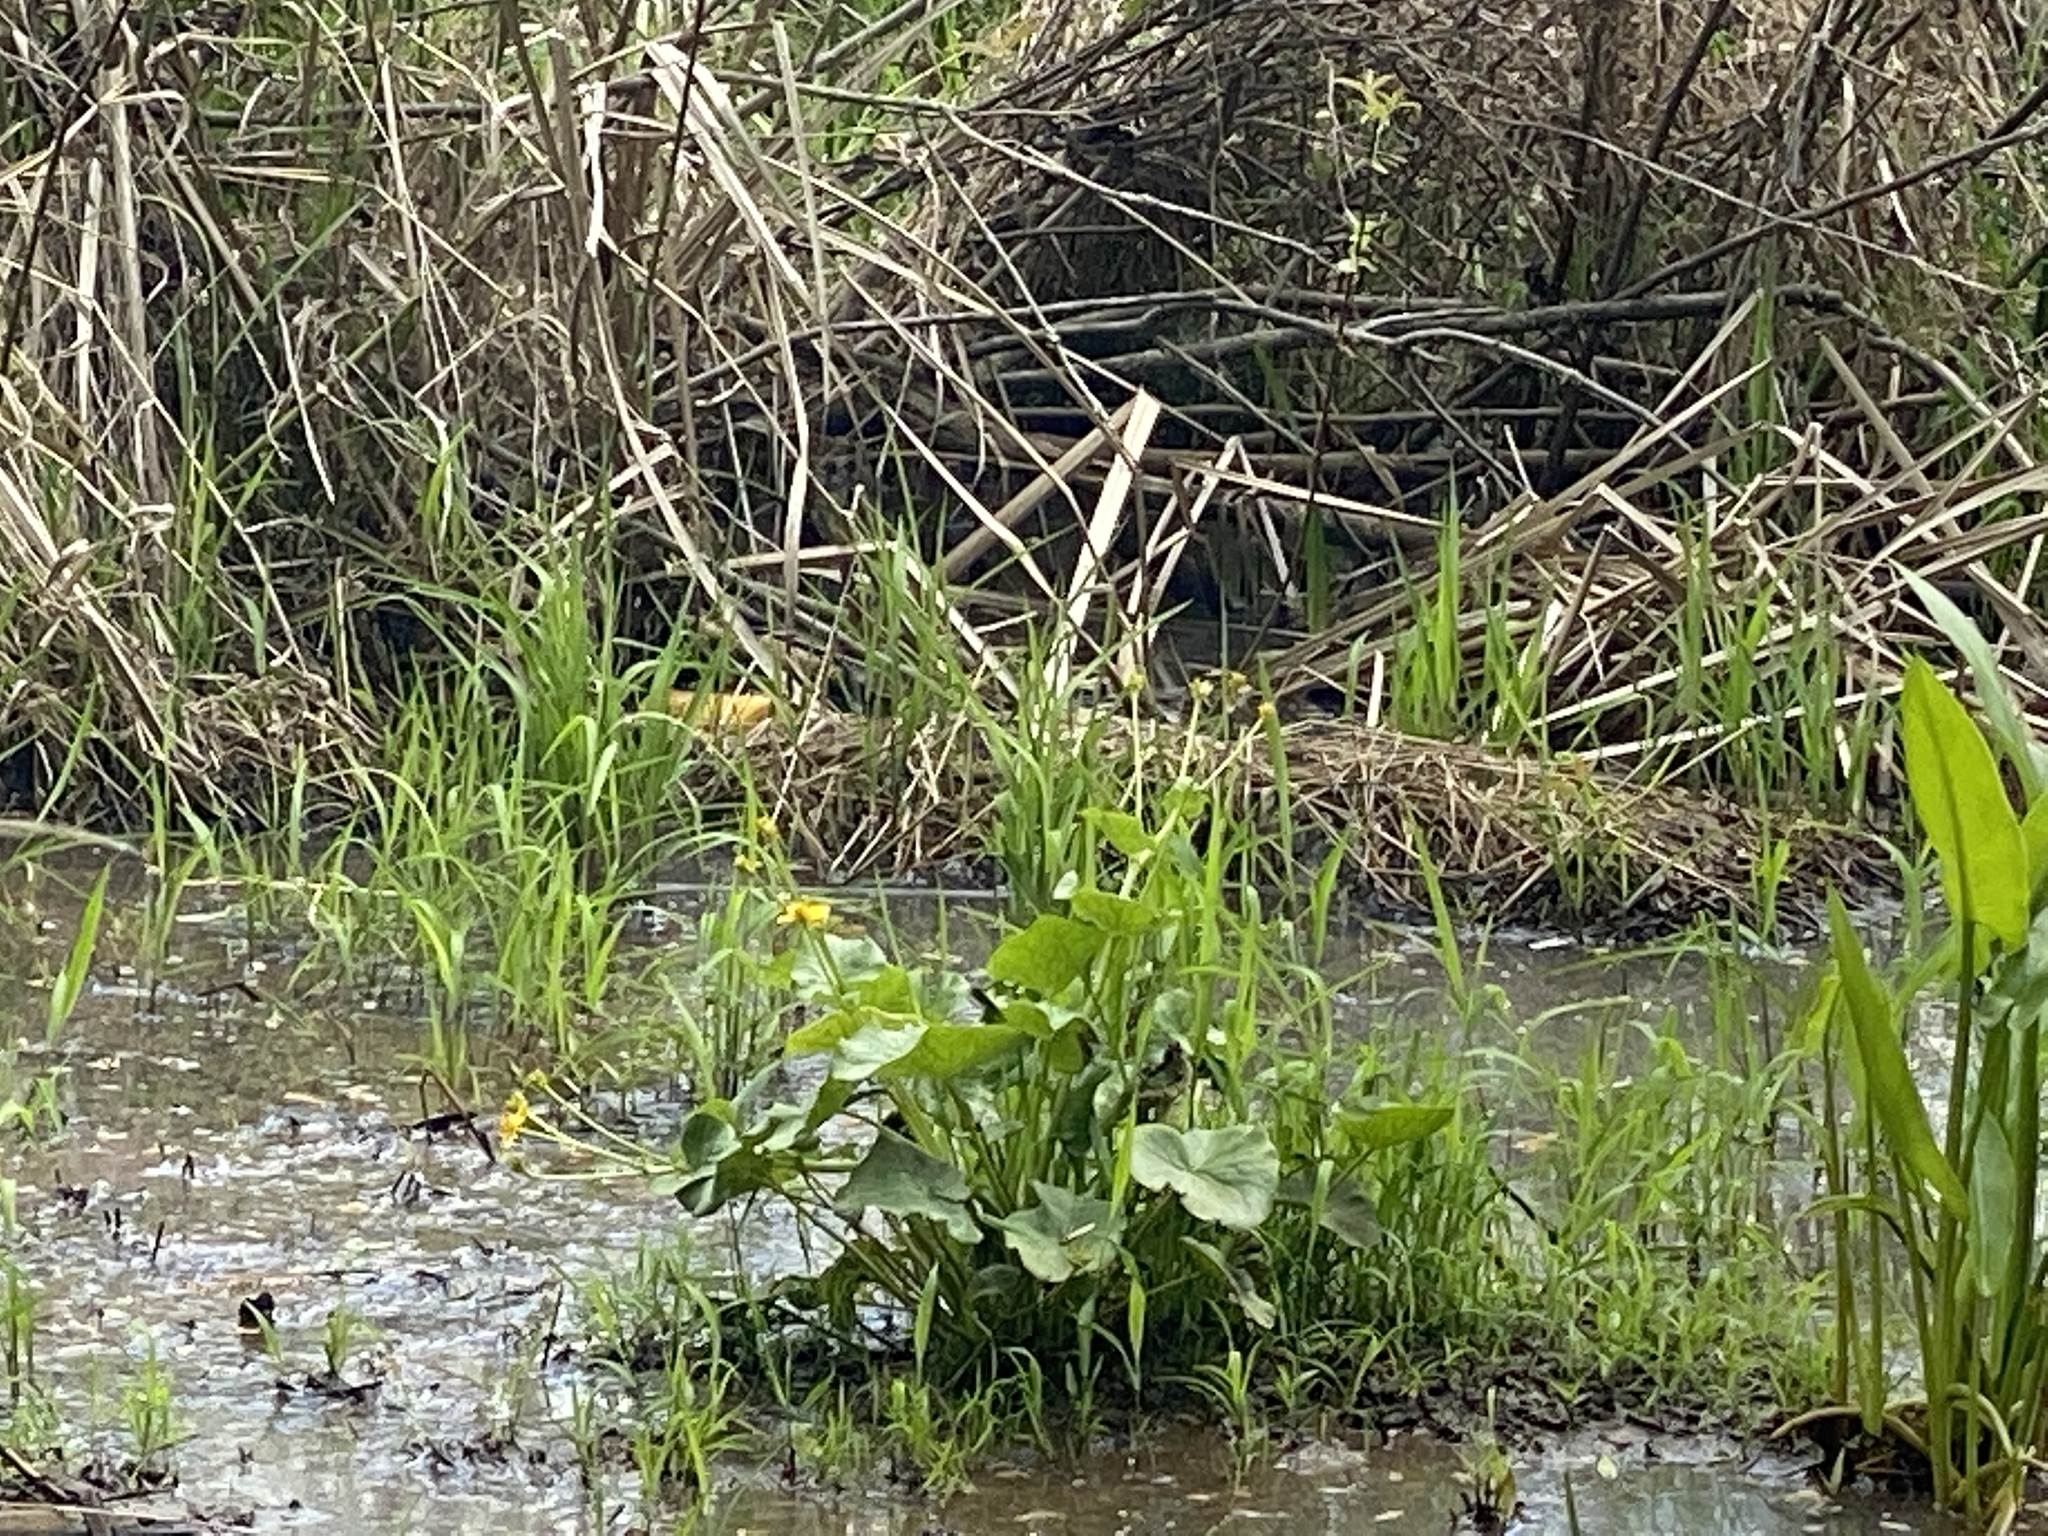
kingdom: Plantae
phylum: Tracheophyta
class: Magnoliopsida
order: Ranunculales
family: Ranunculaceae
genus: Caltha
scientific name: Caltha palustris
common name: Marsh marigold
